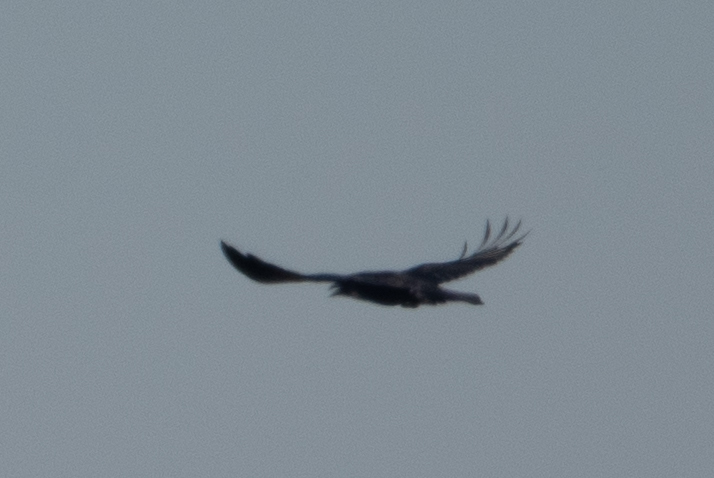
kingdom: Animalia
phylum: Chordata
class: Aves
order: Passeriformes
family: Corvidae
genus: Corvus
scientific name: Corvus corax
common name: Common raven
